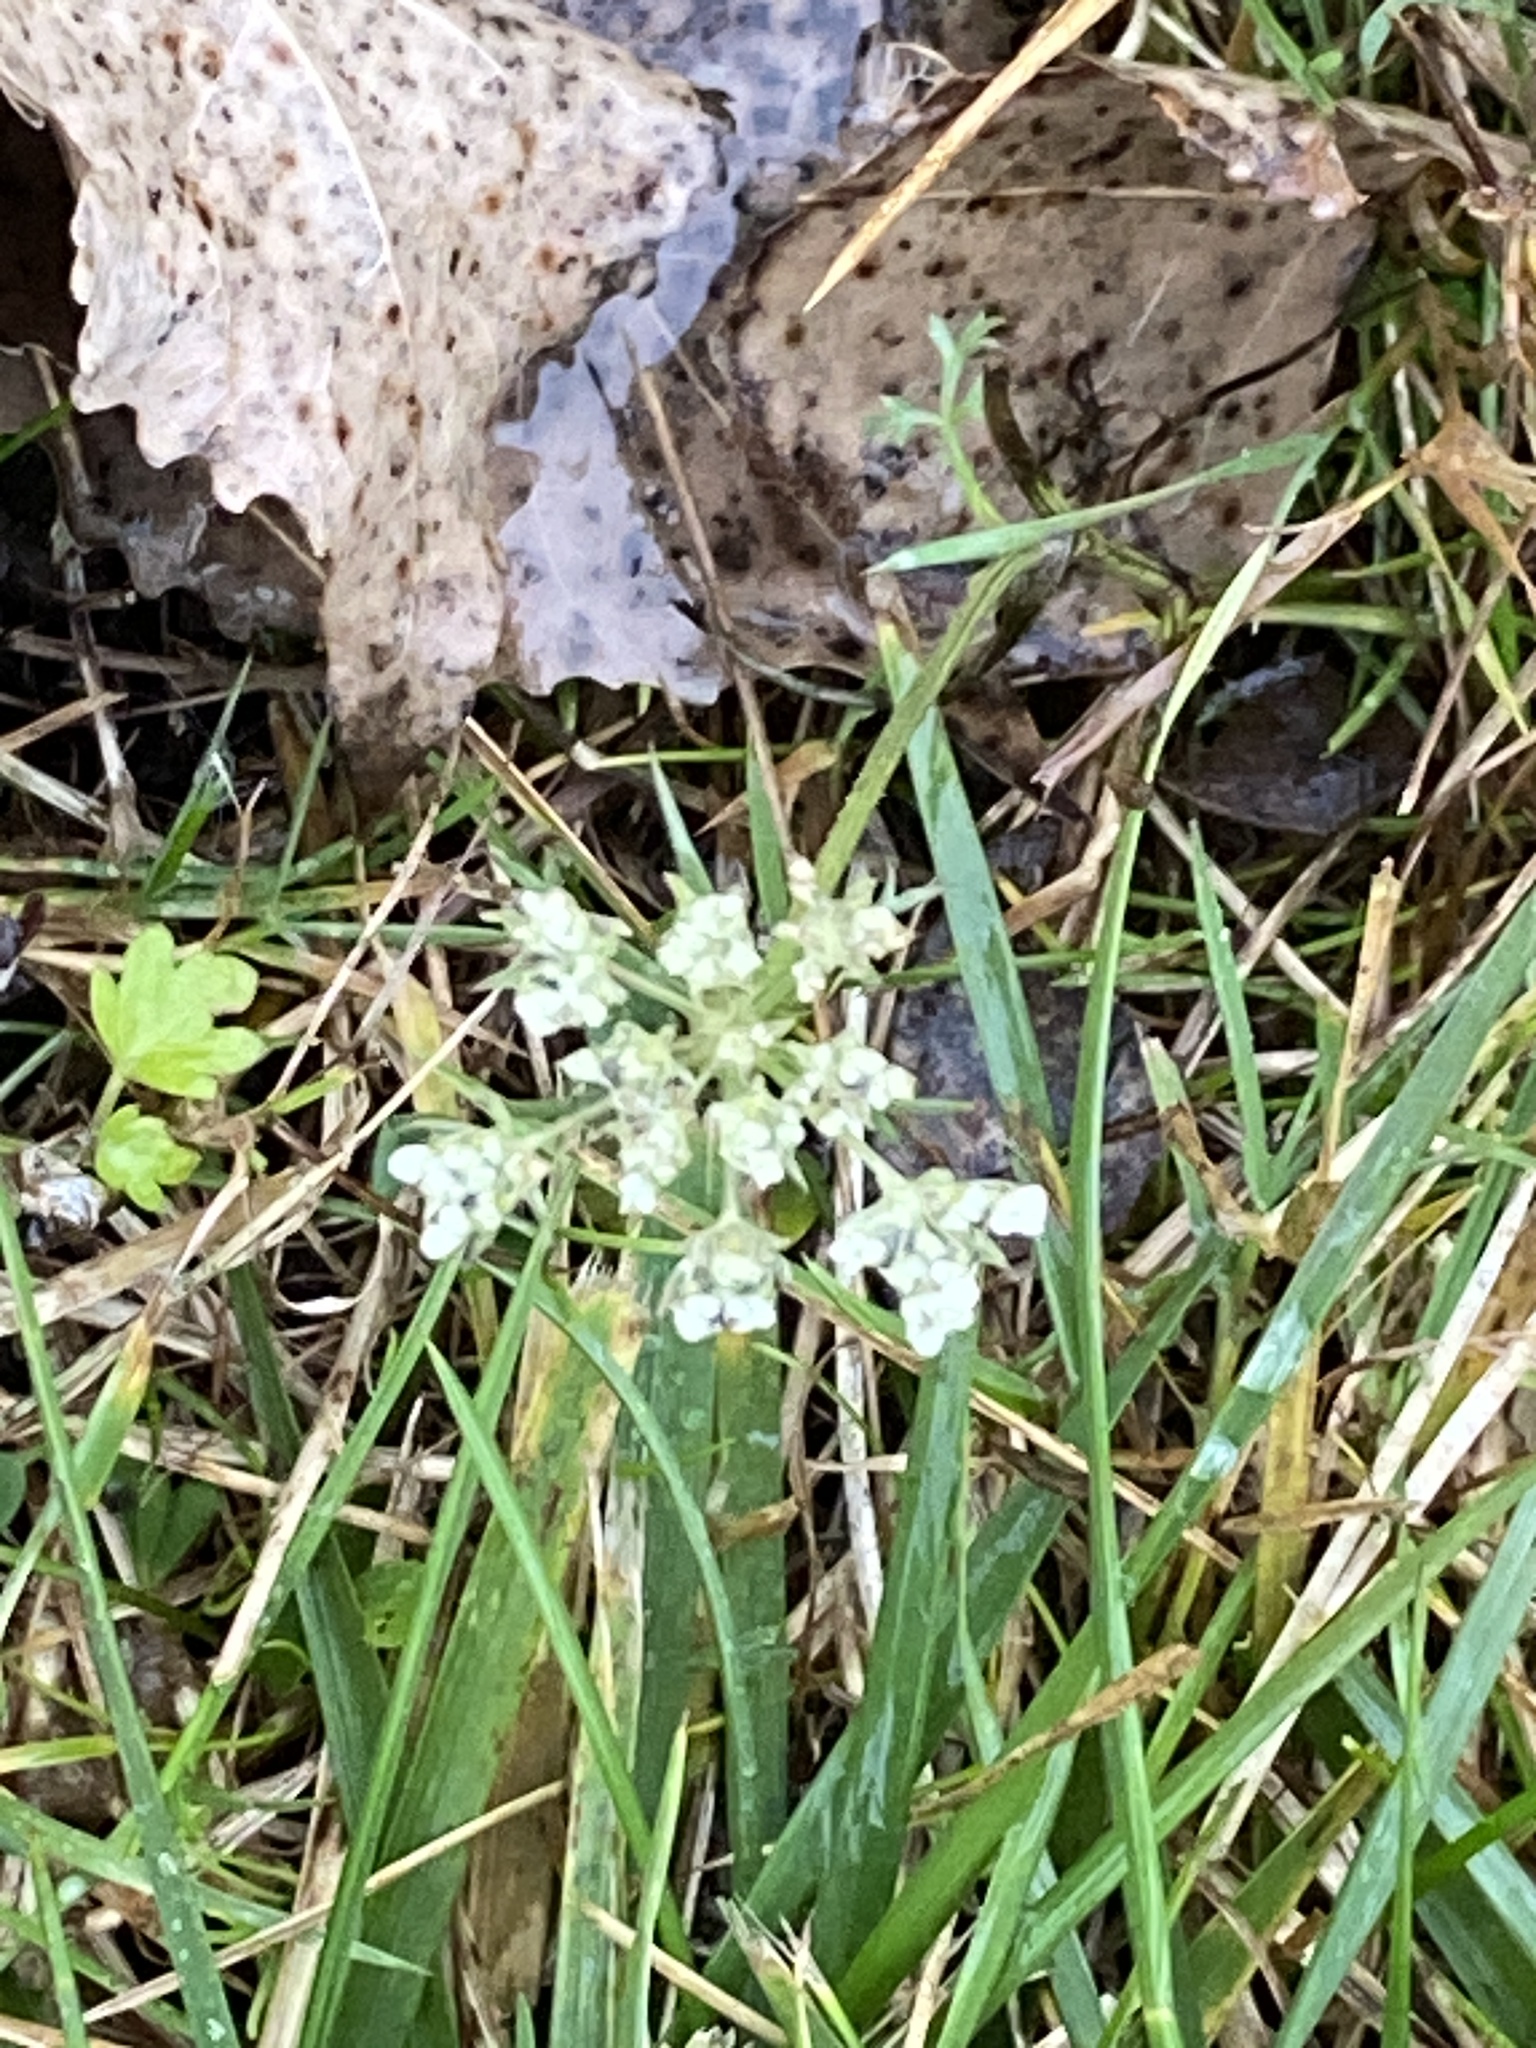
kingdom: Plantae
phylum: Tracheophyta
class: Magnoliopsida
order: Apiales
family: Apiaceae
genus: Daucus
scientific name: Daucus carota
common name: Wild carrot
